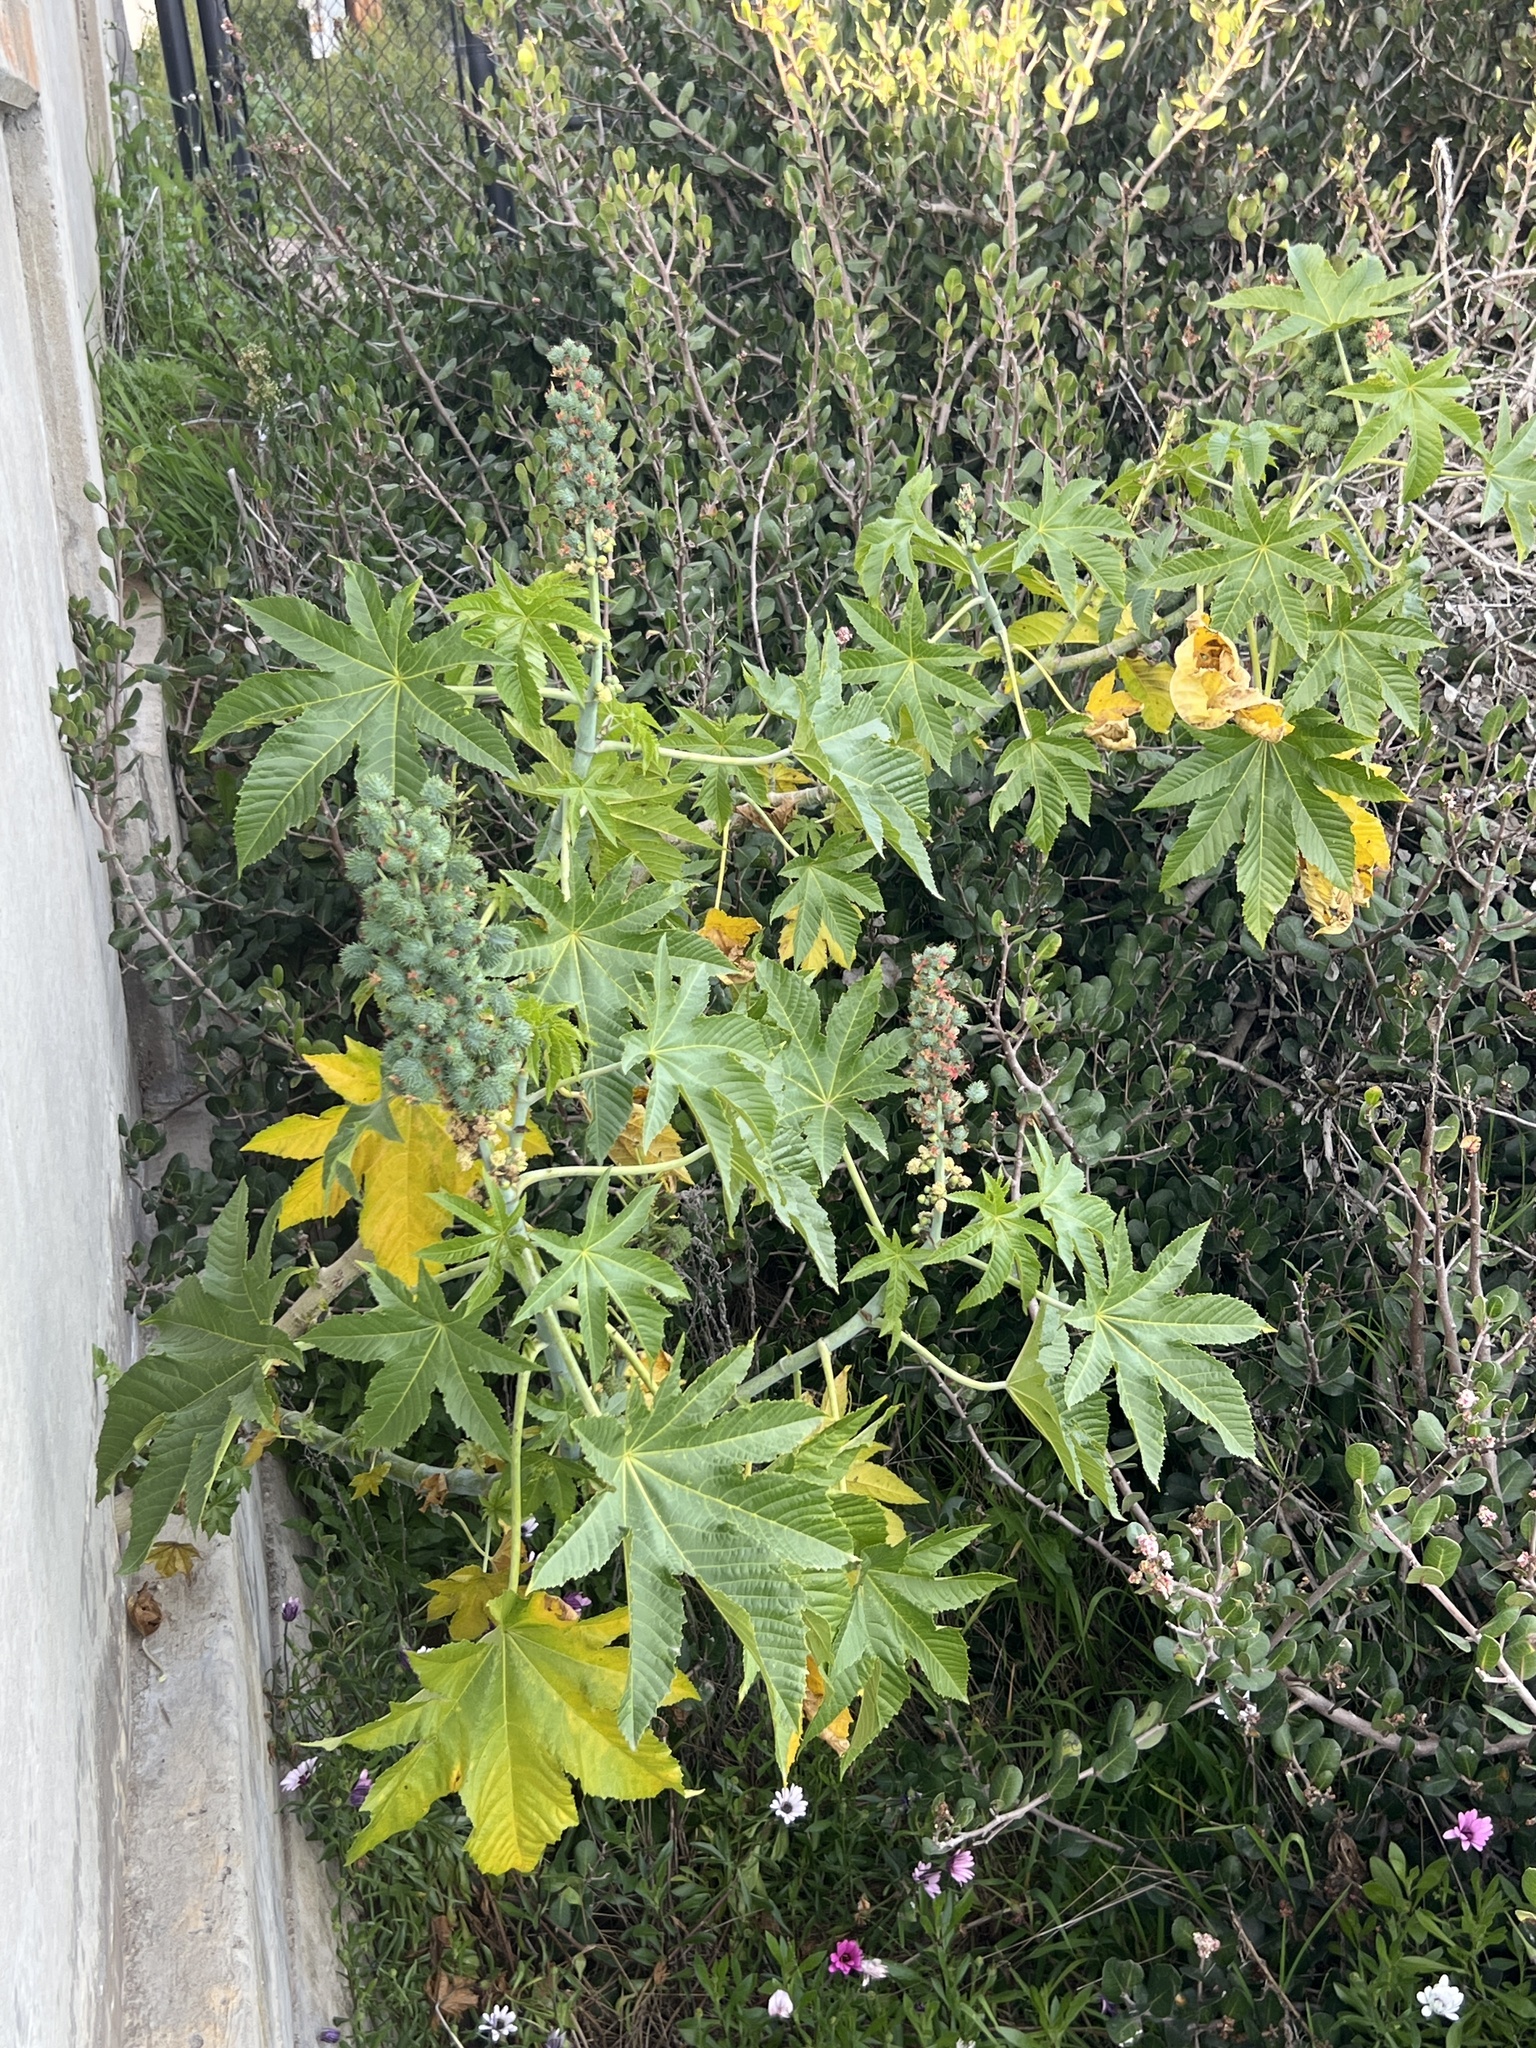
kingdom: Plantae
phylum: Tracheophyta
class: Magnoliopsida
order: Malpighiales
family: Euphorbiaceae
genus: Ricinus
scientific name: Ricinus communis
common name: Castor-oil-plant
